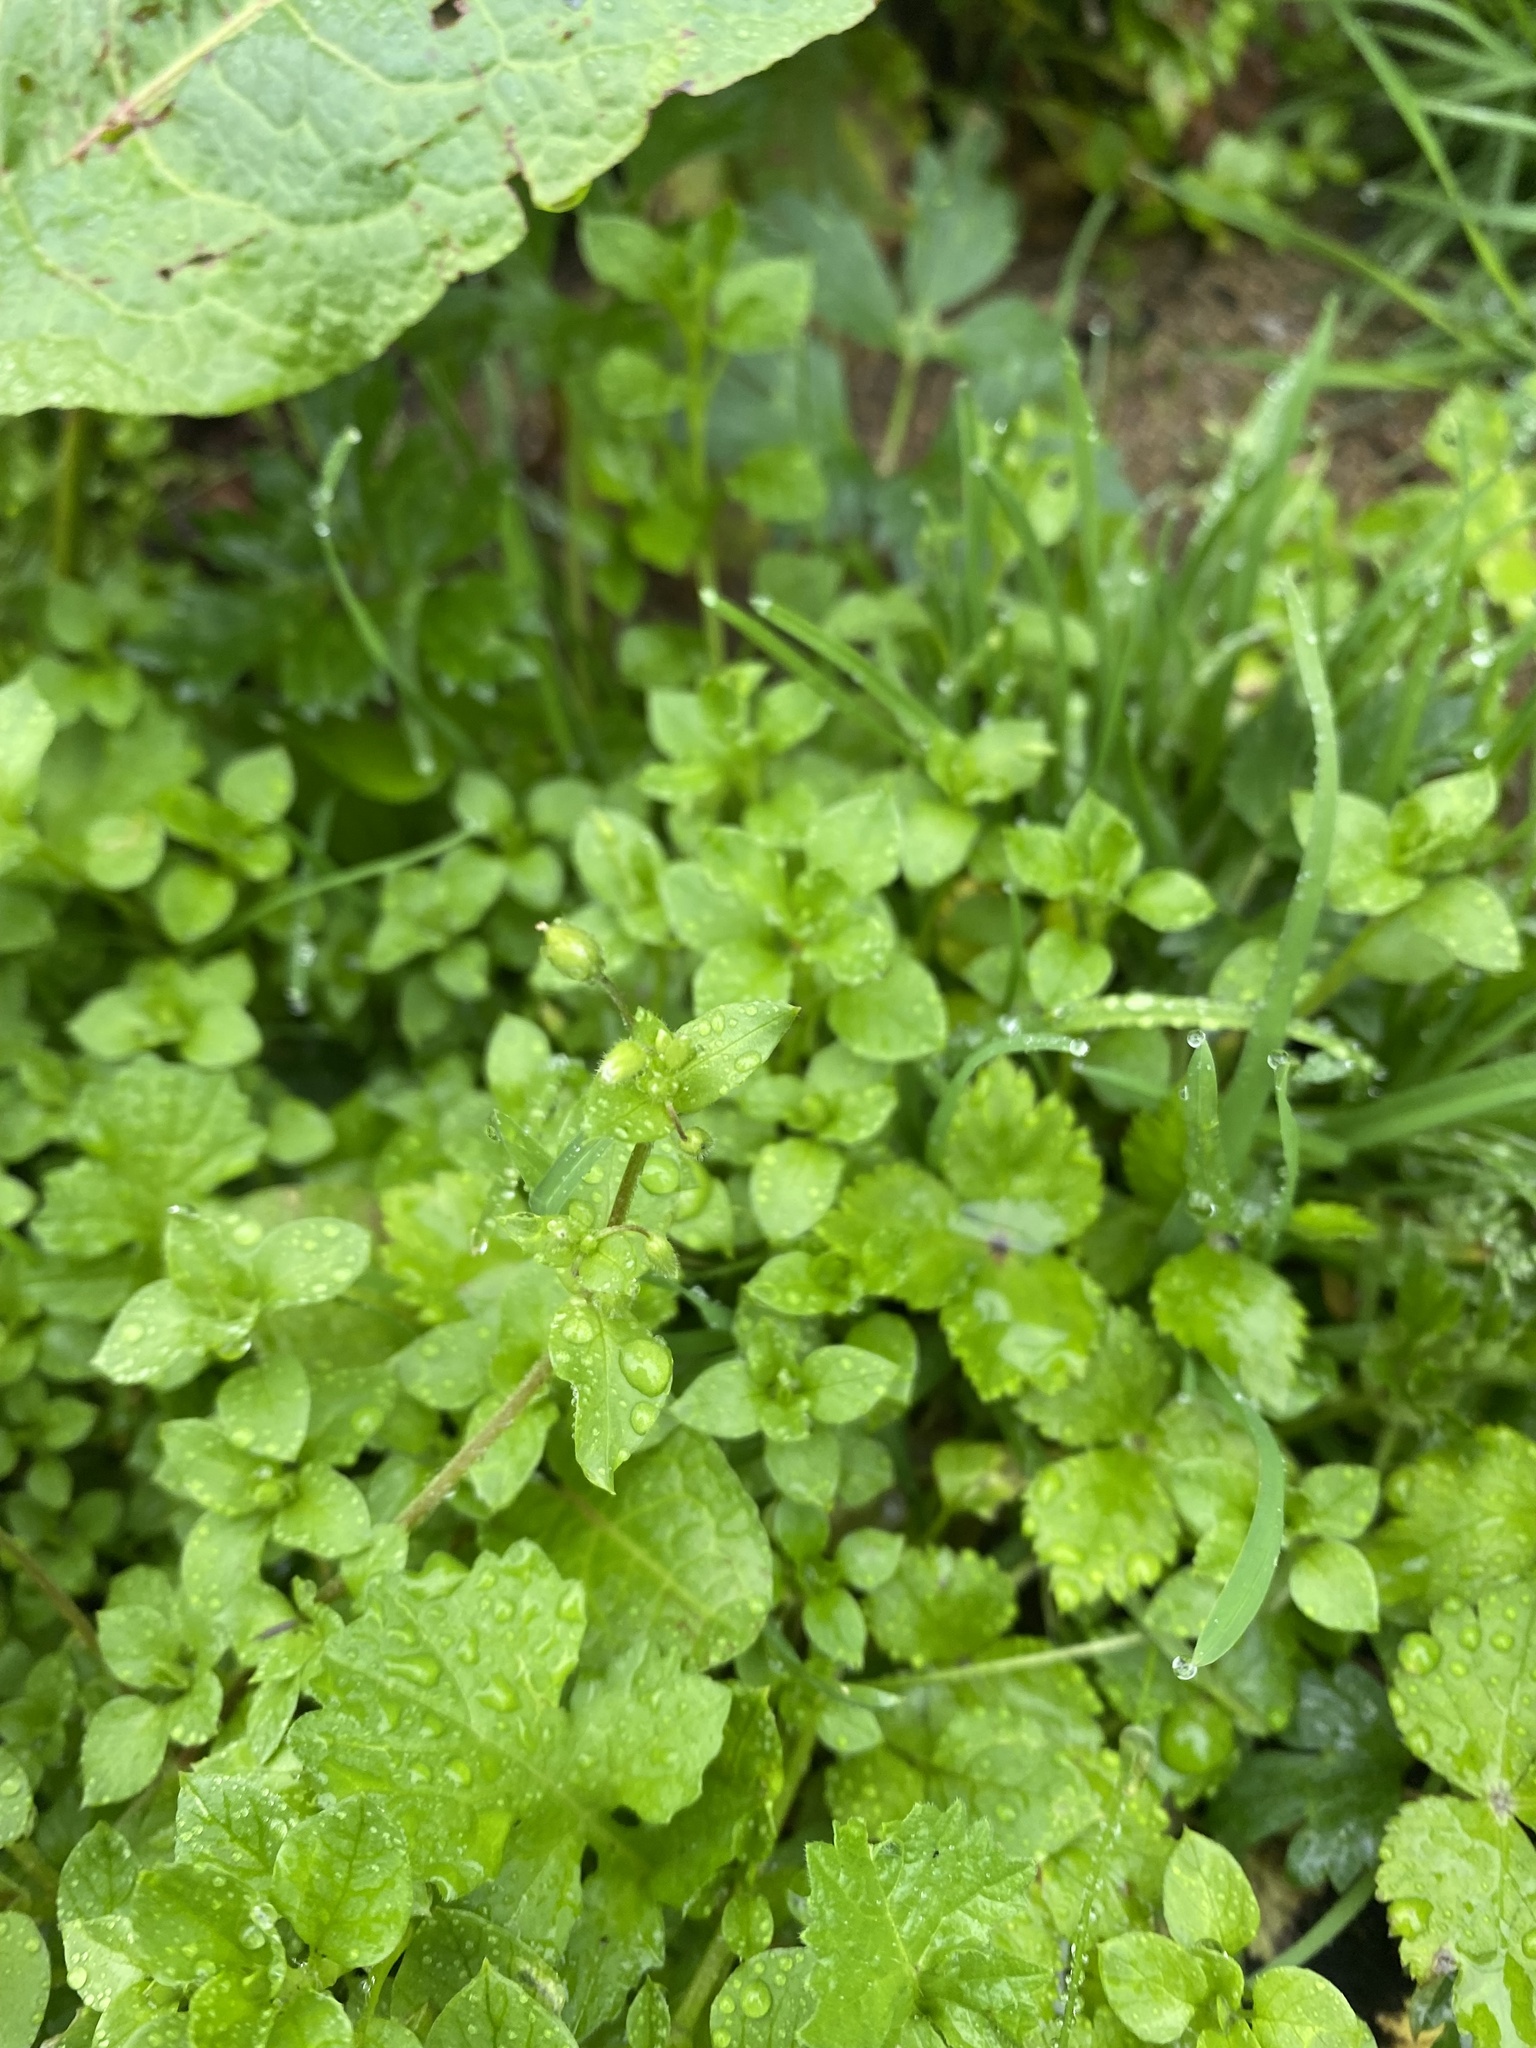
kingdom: Plantae
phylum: Tracheophyta
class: Magnoliopsida
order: Caryophyllales
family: Caryophyllaceae
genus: Stellaria
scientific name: Stellaria media
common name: Common chickweed
